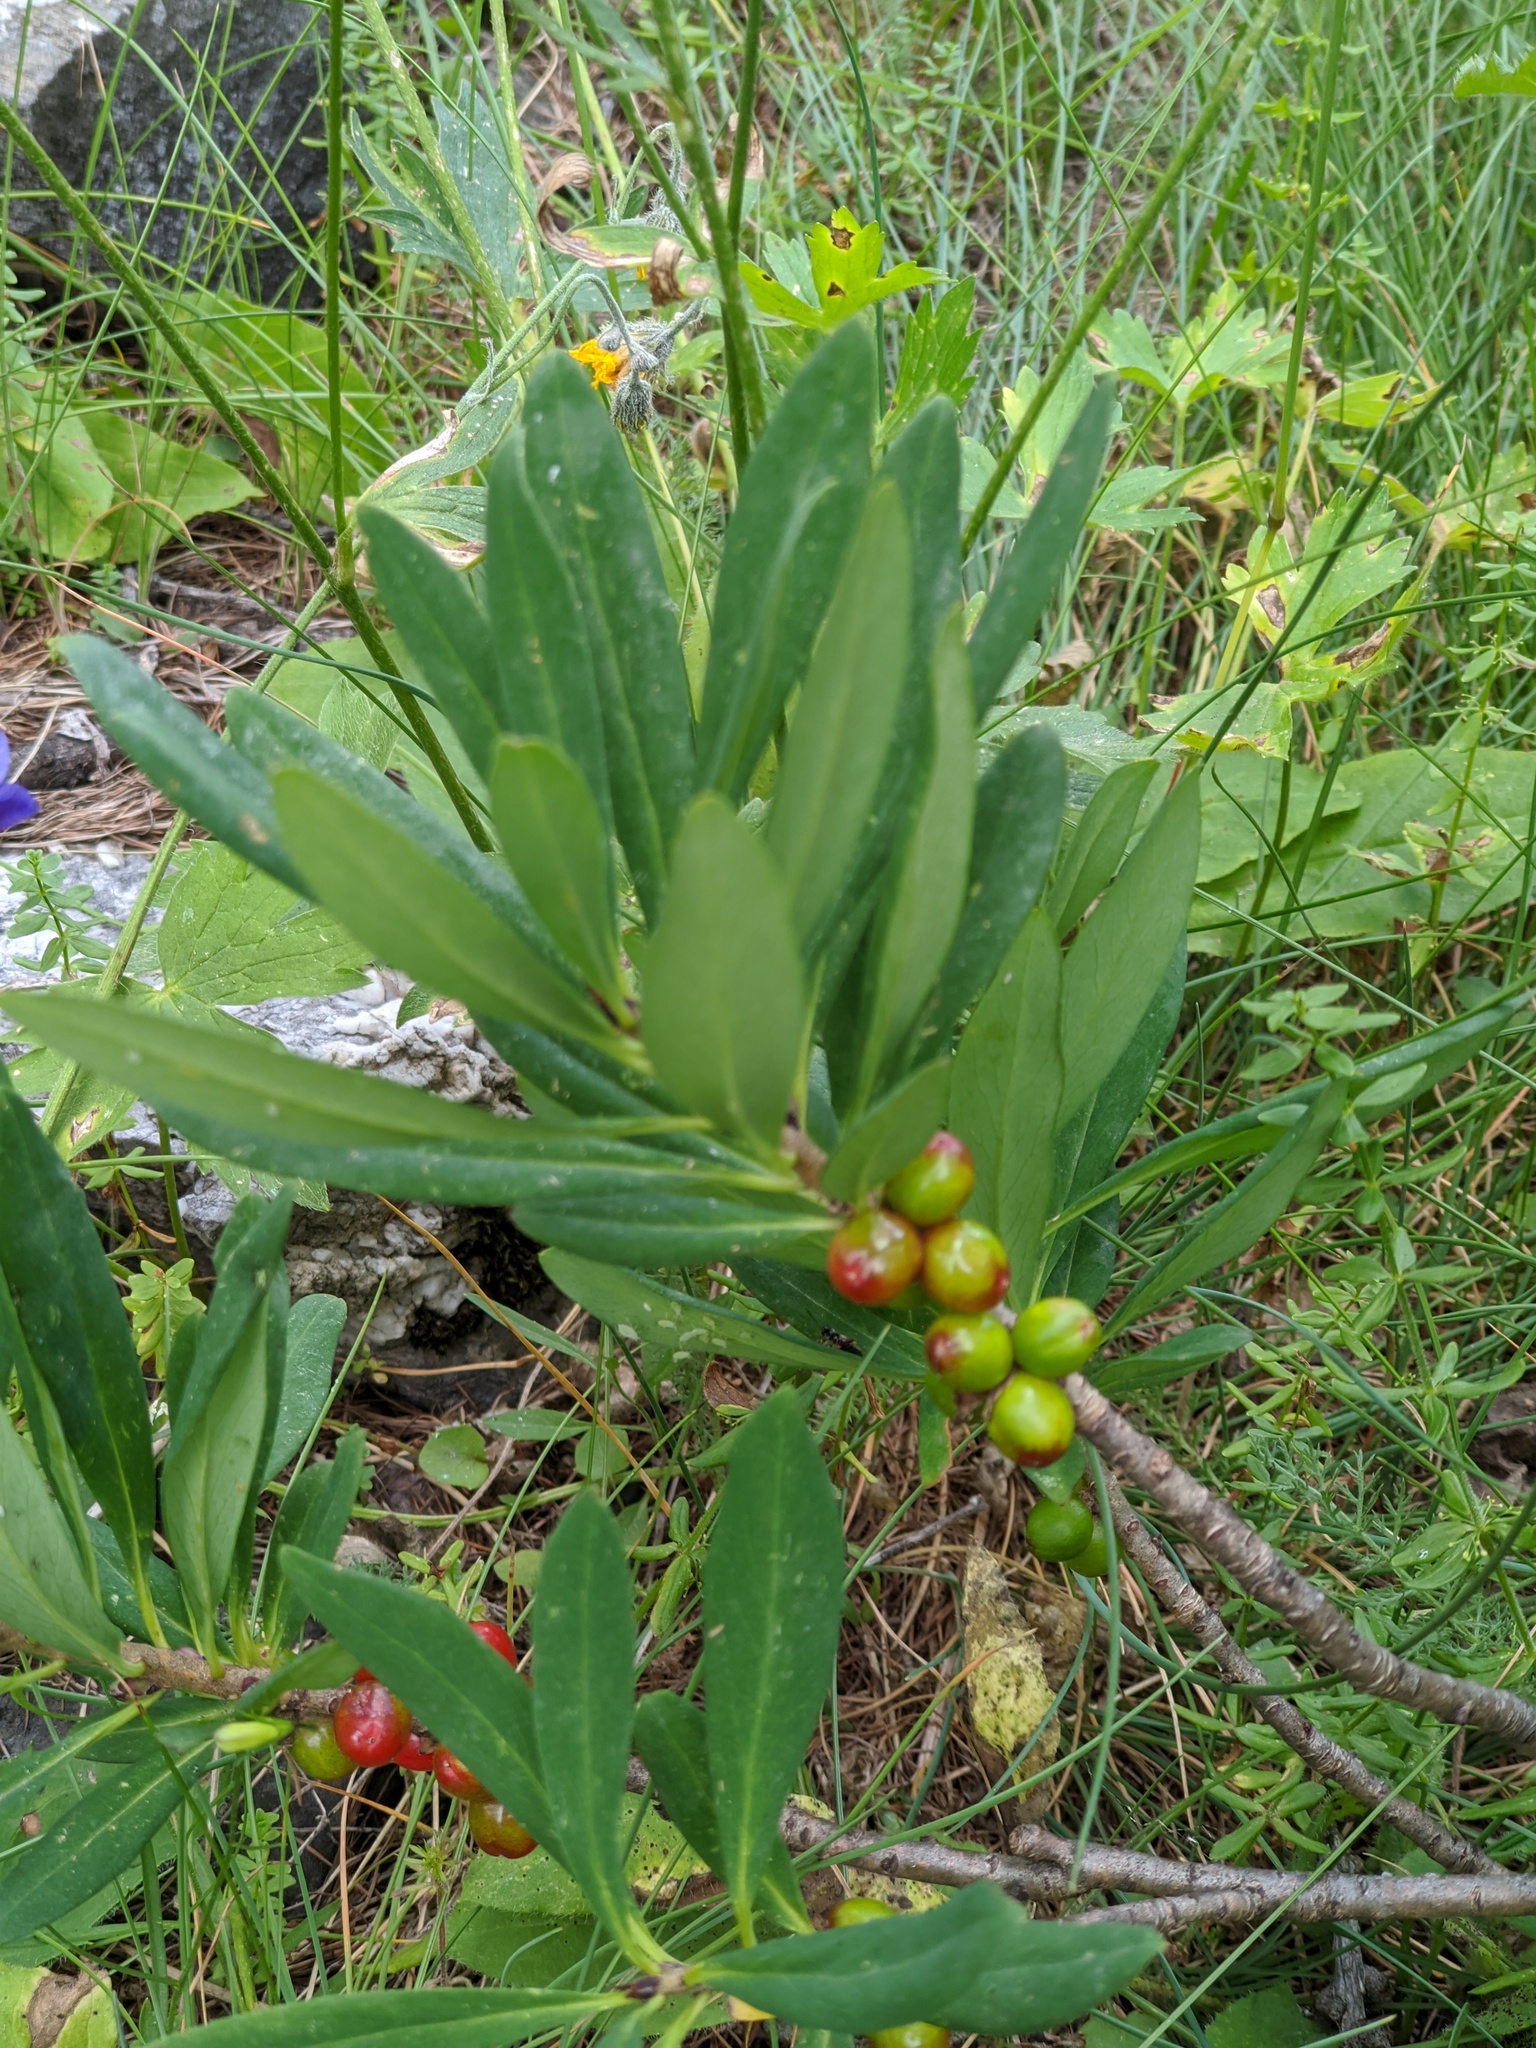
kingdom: Plantae
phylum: Tracheophyta
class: Magnoliopsida
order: Malvales
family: Thymelaeaceae
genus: Daphne
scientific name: Daphne mezereum
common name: Mezereon
